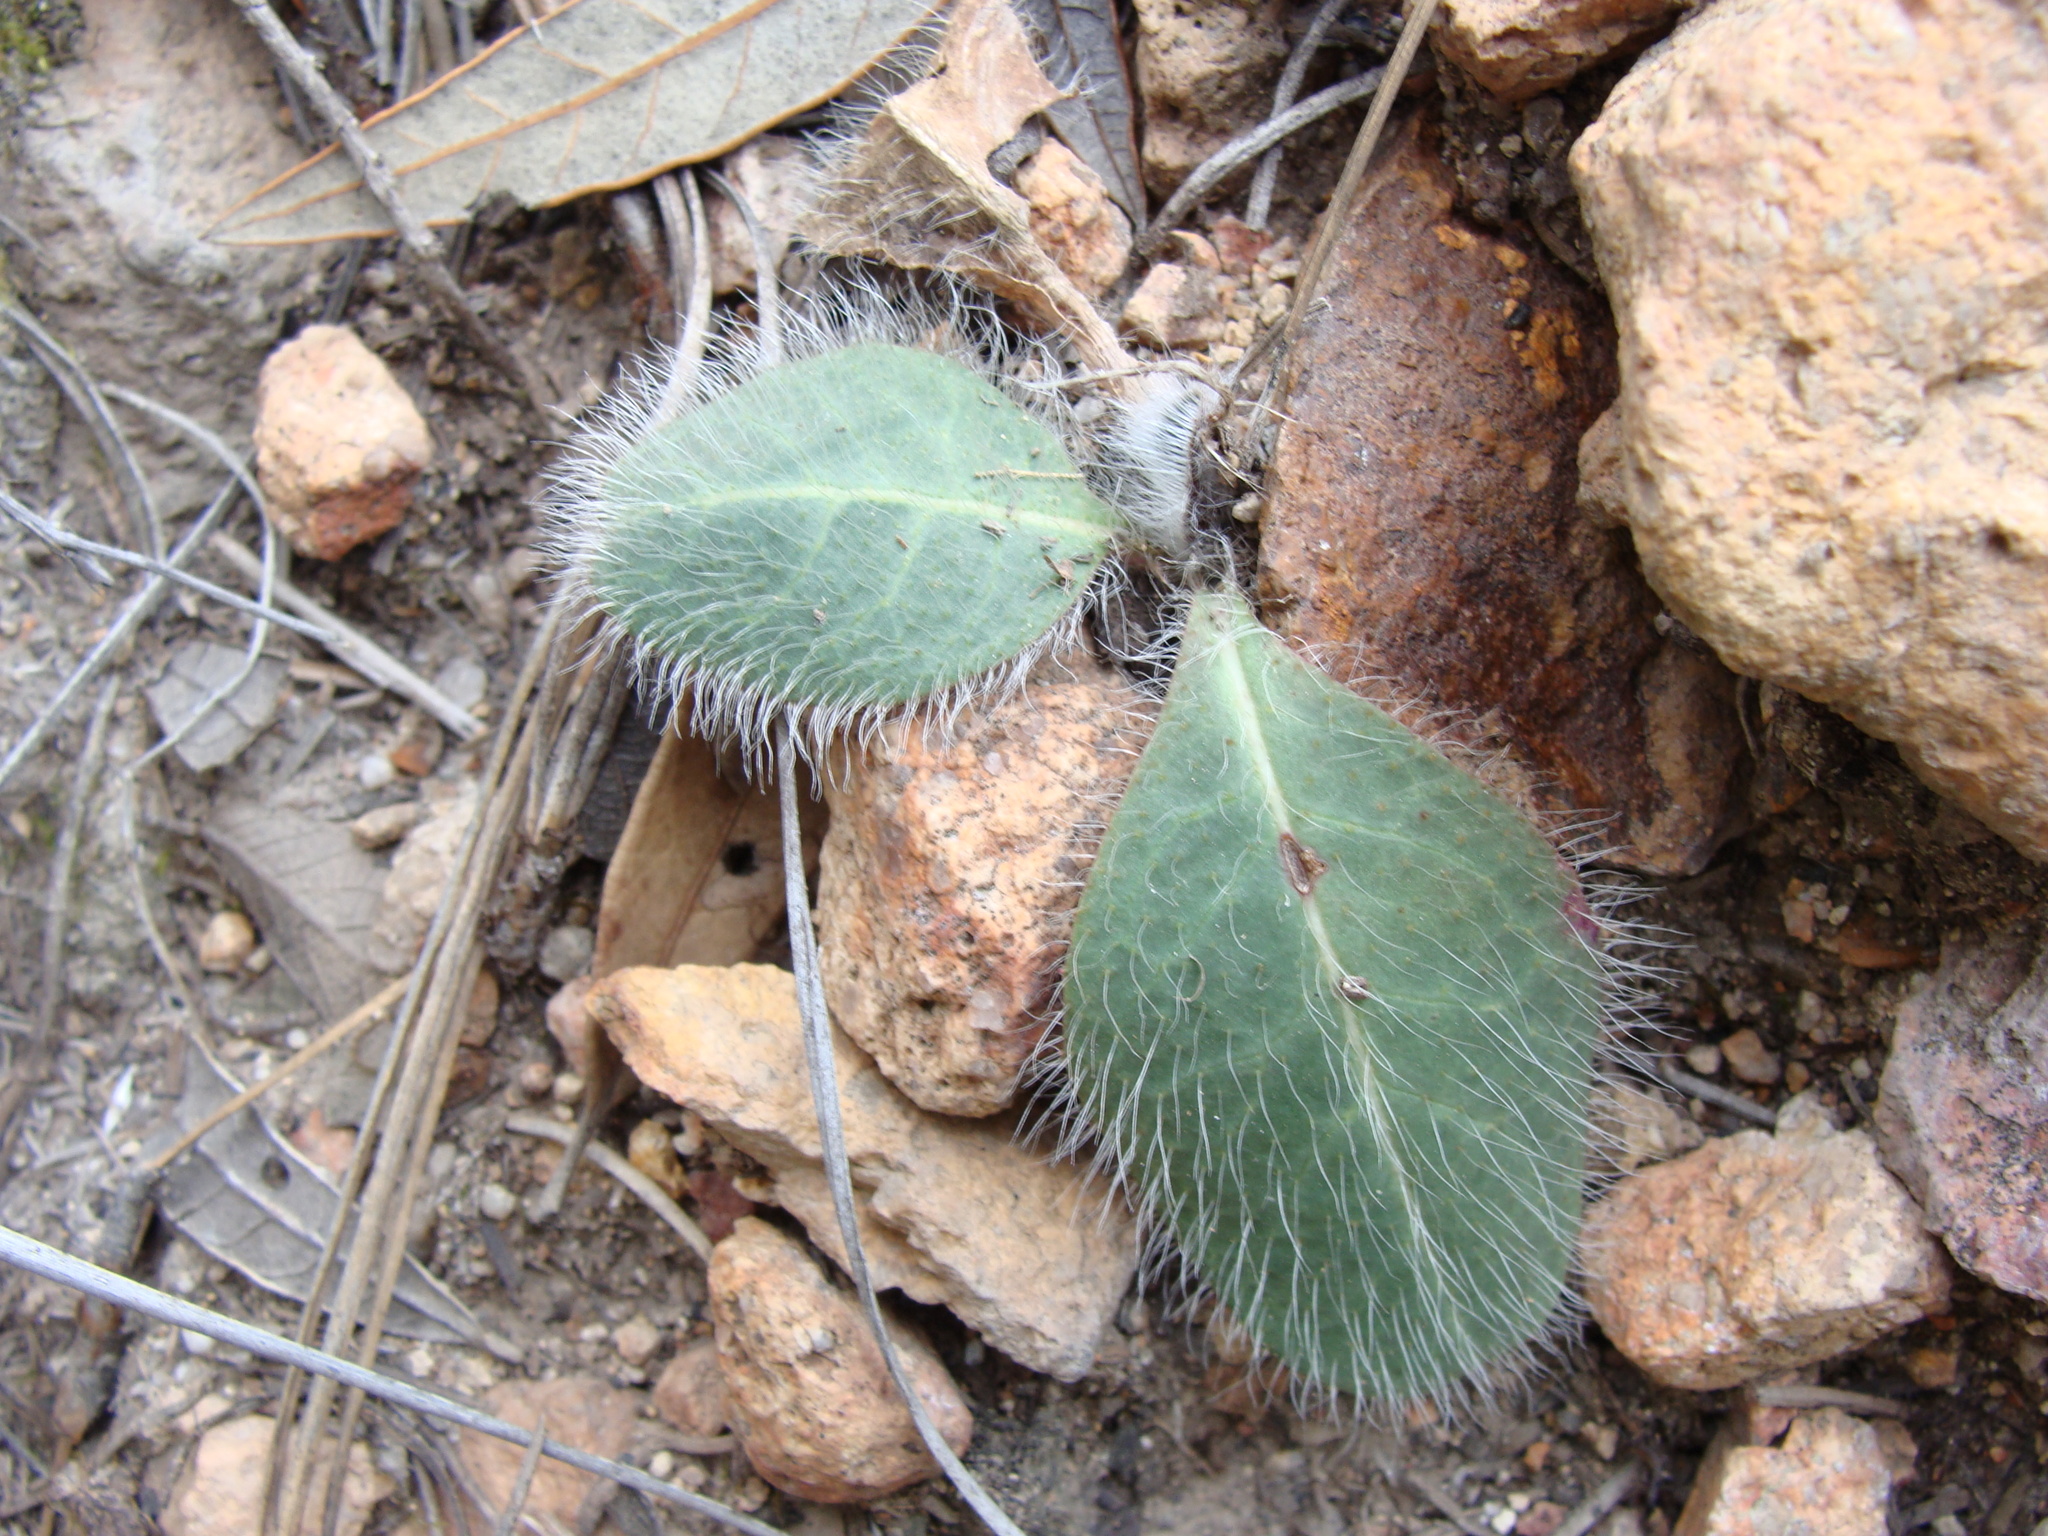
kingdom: Plantae
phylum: Tracheophyta
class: Magnoliopsida
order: Asterales
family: Asteraceae
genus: Hieracium
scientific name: Hieracium fendleri
